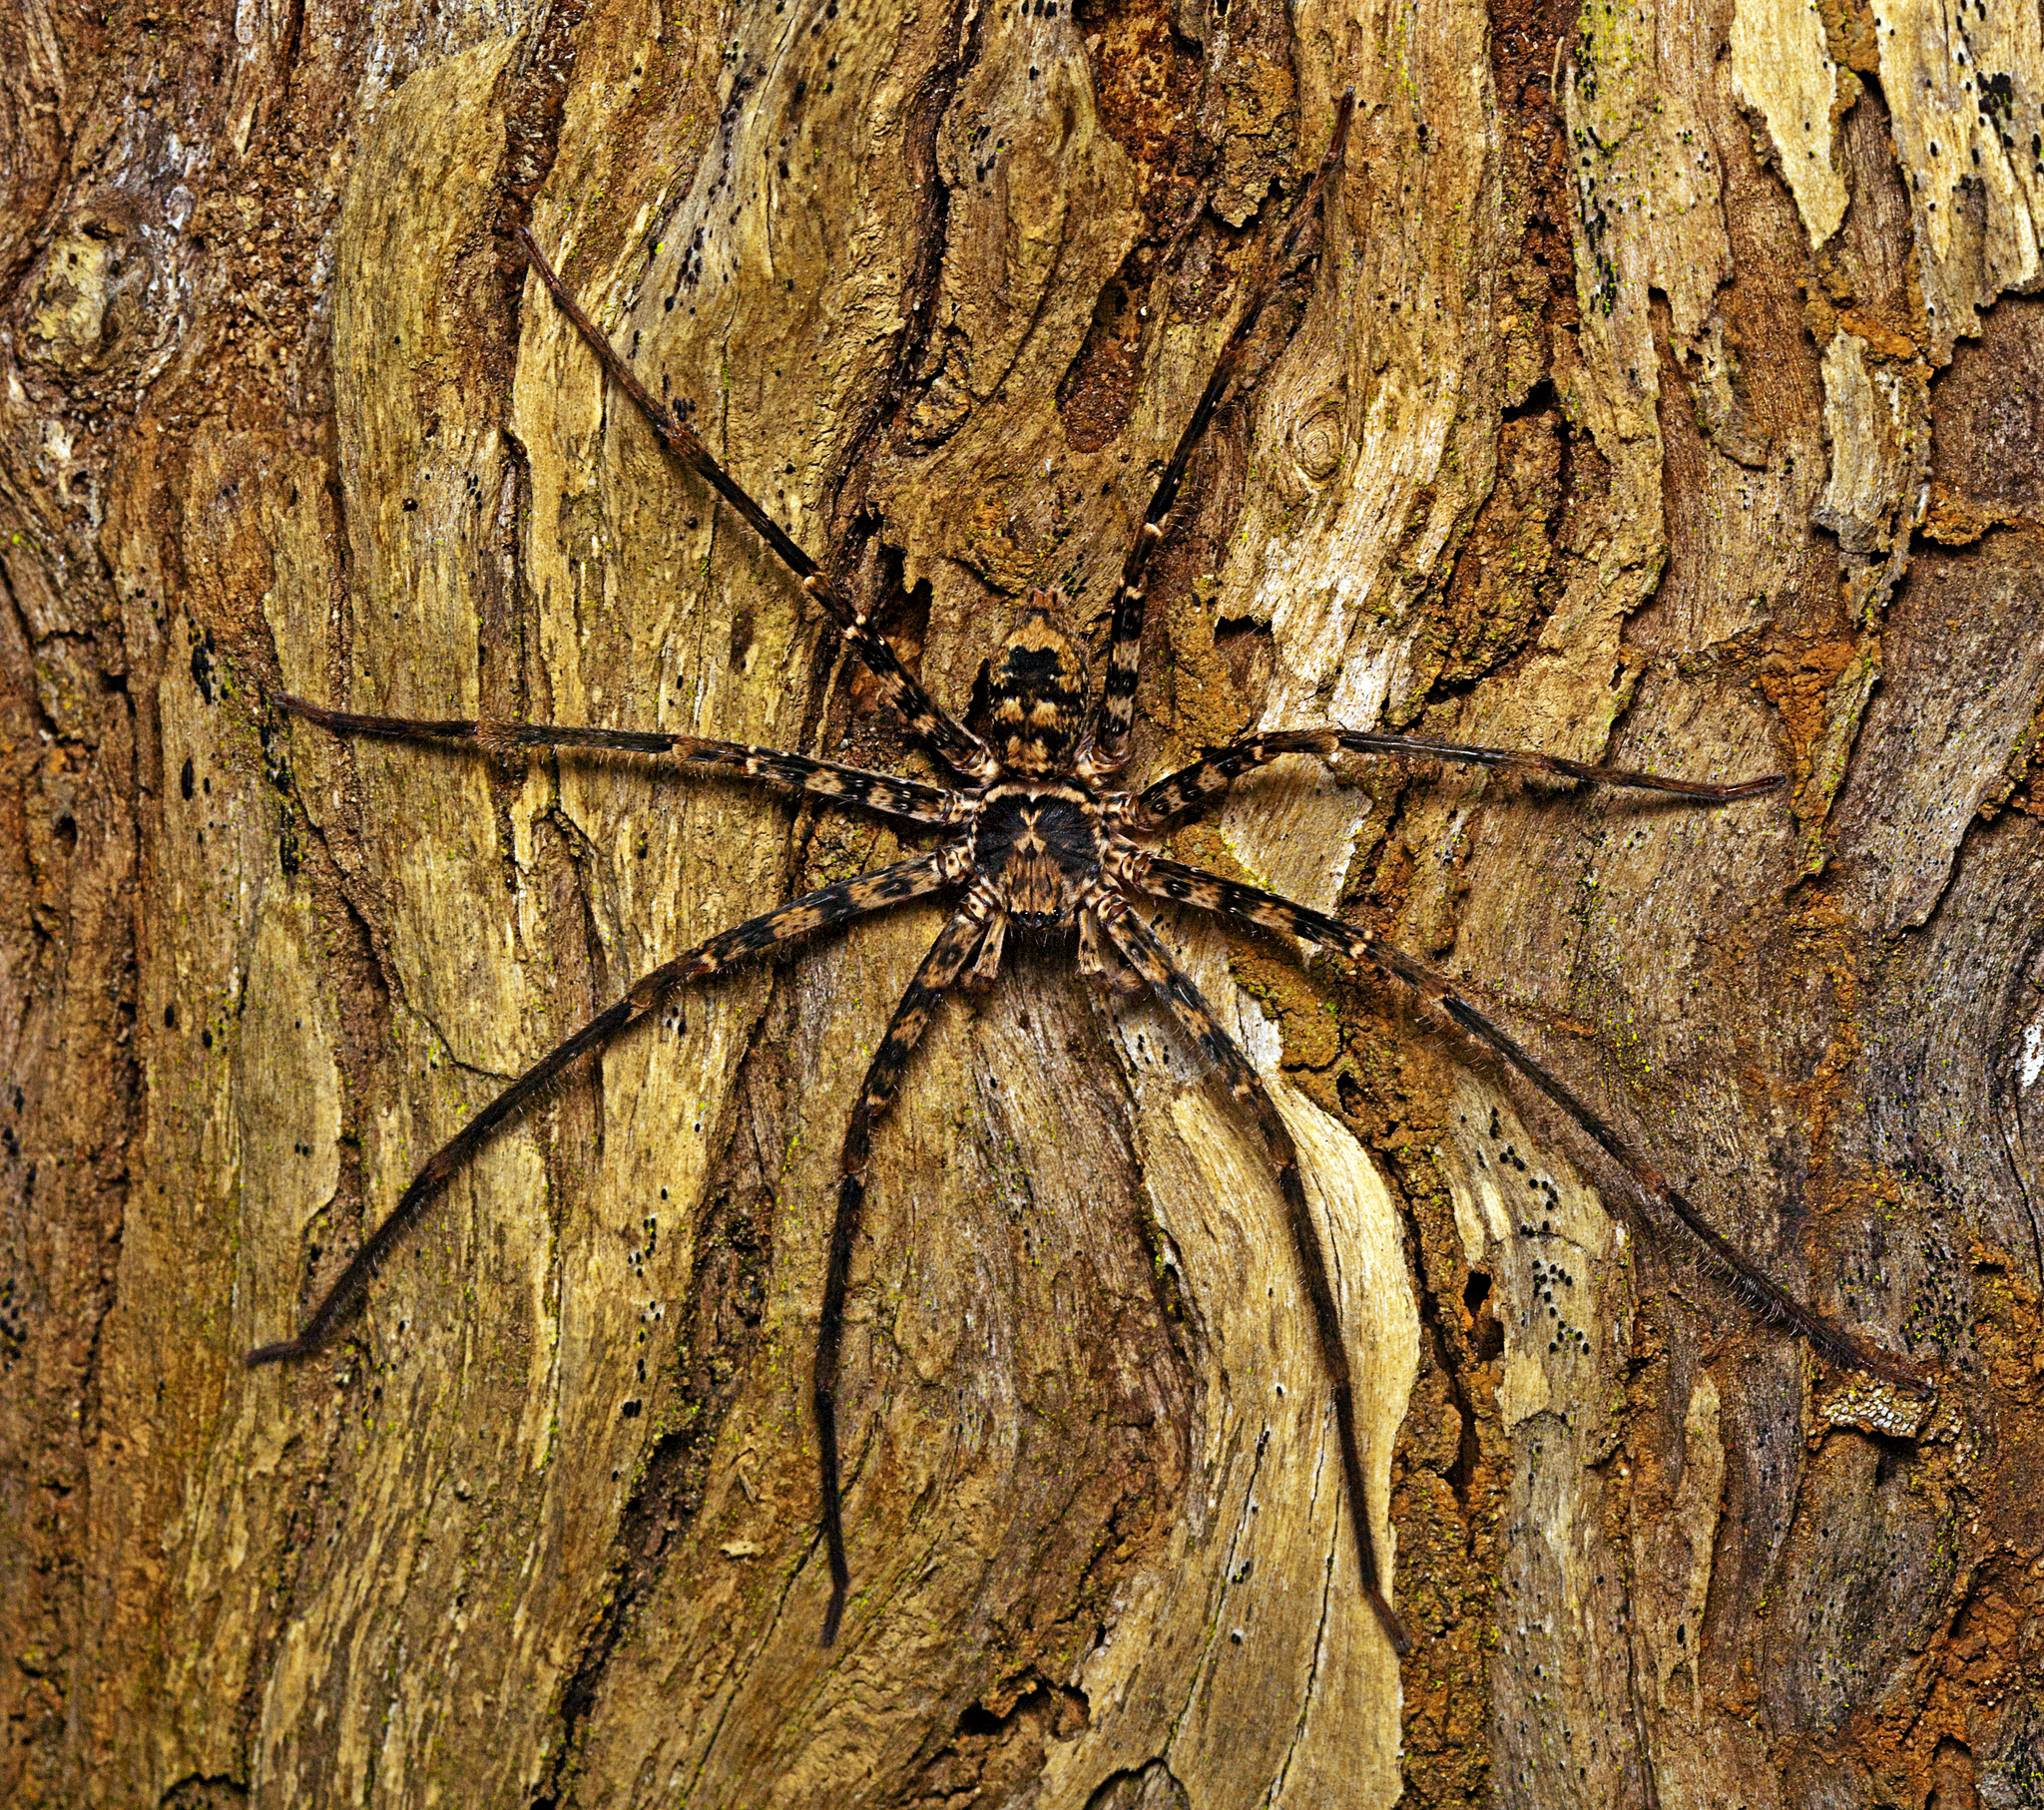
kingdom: Animalia
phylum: Arthropoda
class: Arachnida
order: Araneae
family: Sparassidae
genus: Heteropoda
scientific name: Heteropoda procera
